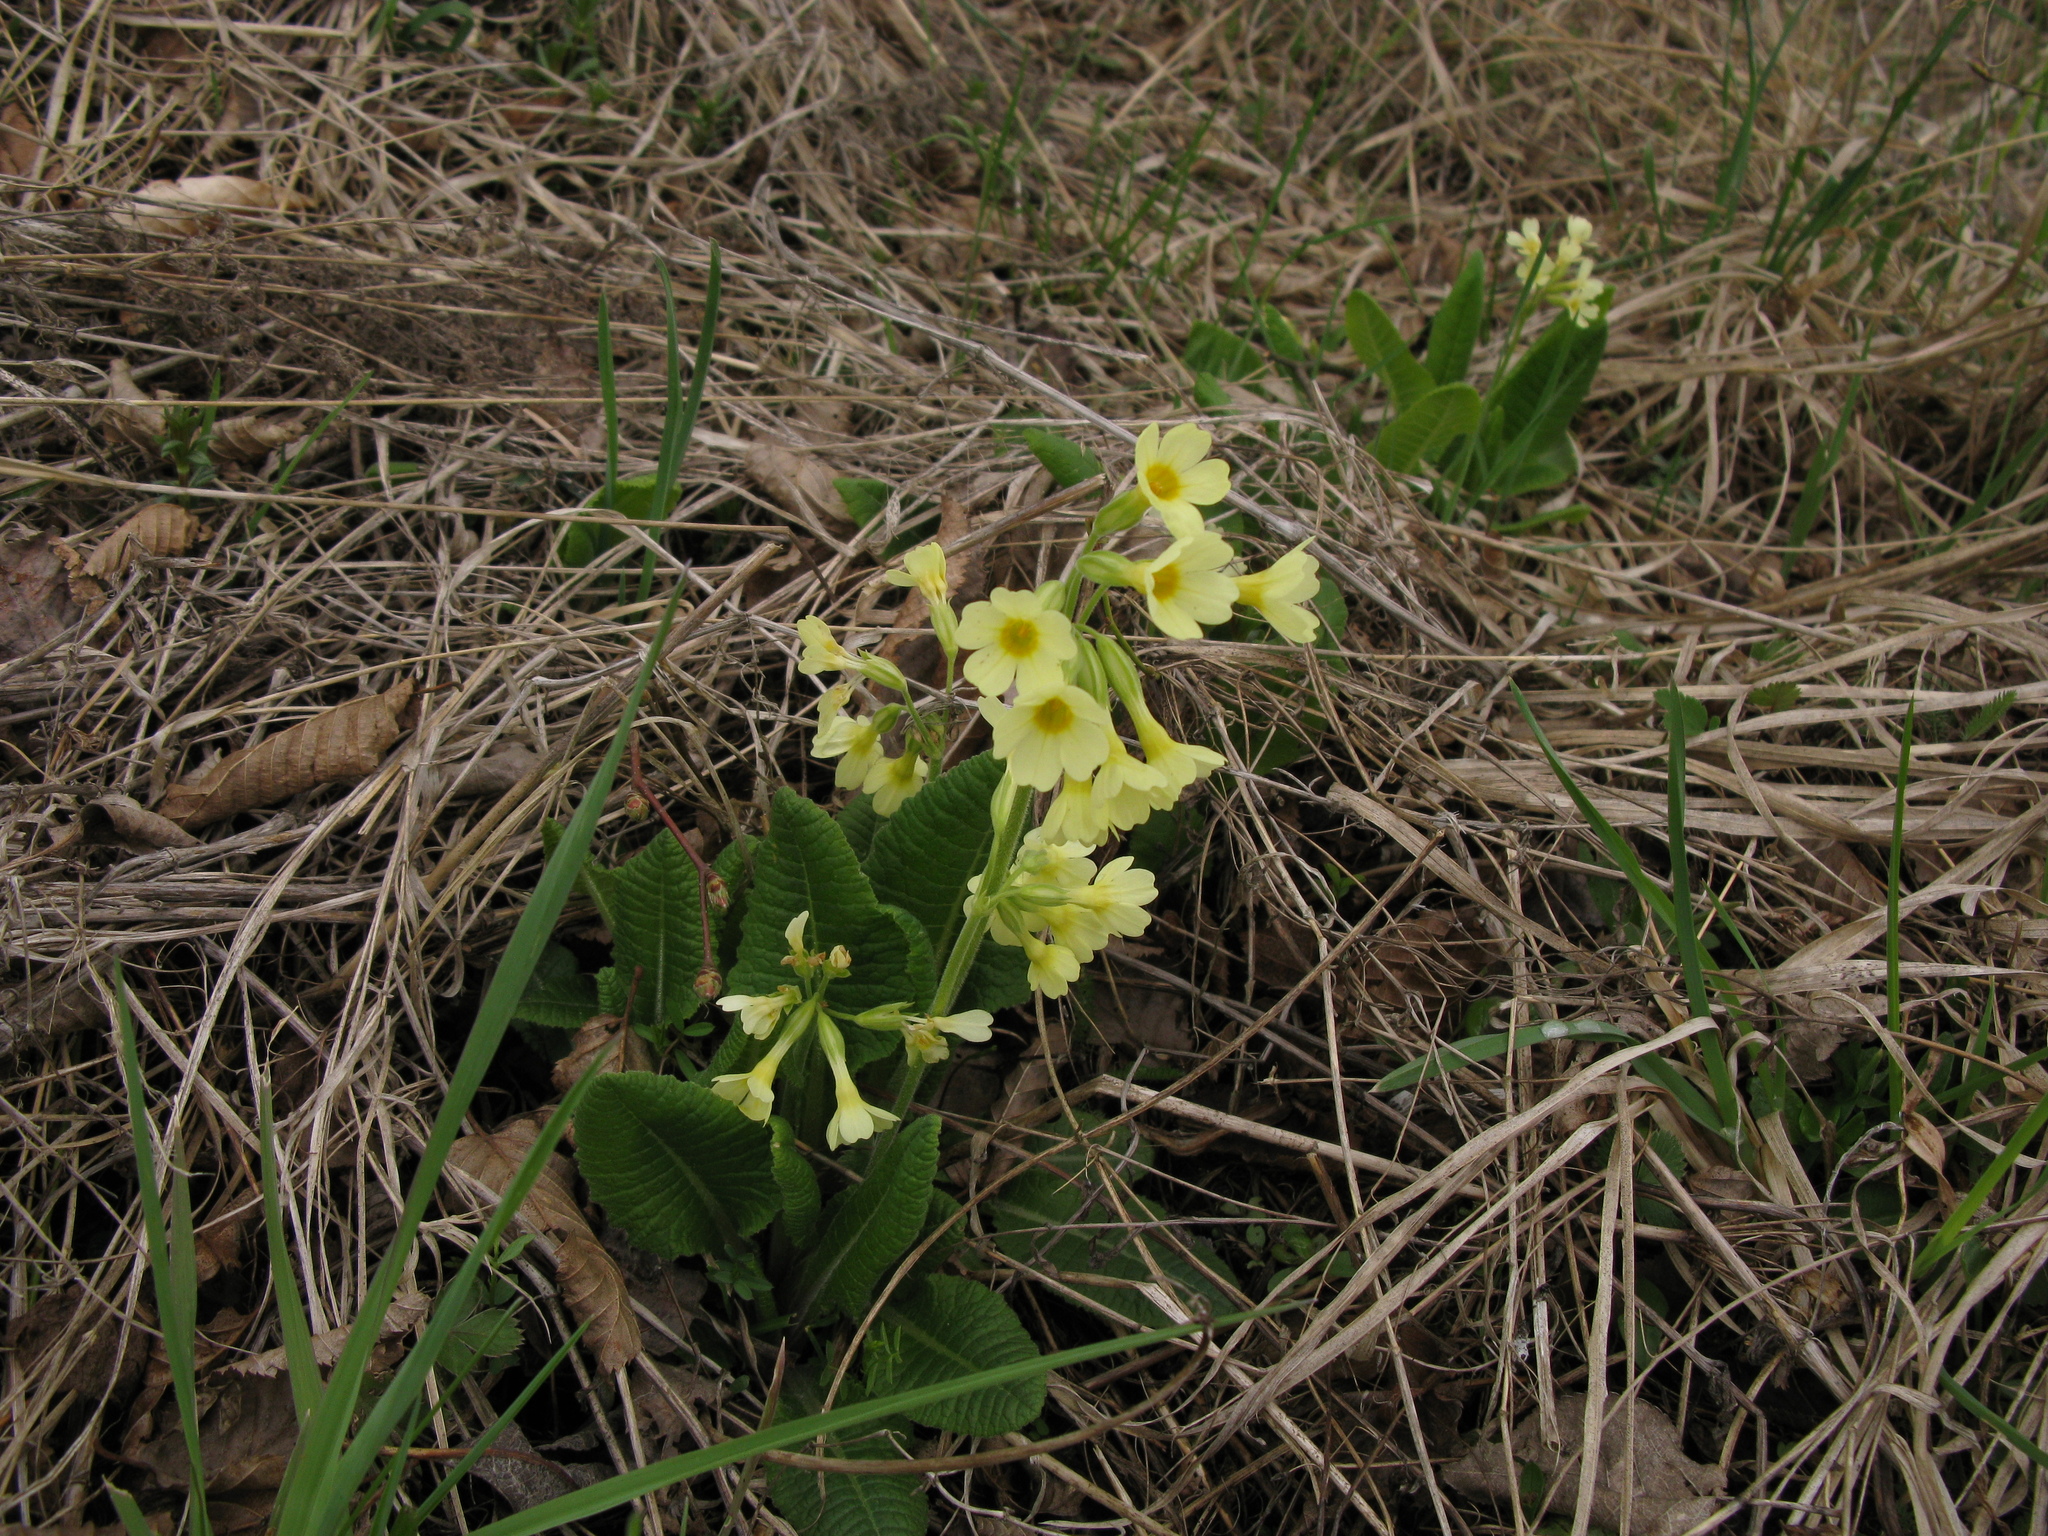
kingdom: Plantae
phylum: Tracheophyta
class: Magnoliopsida
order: Ericales
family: Primulaceae
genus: Primula
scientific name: Primula elatior
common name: Oxlip
